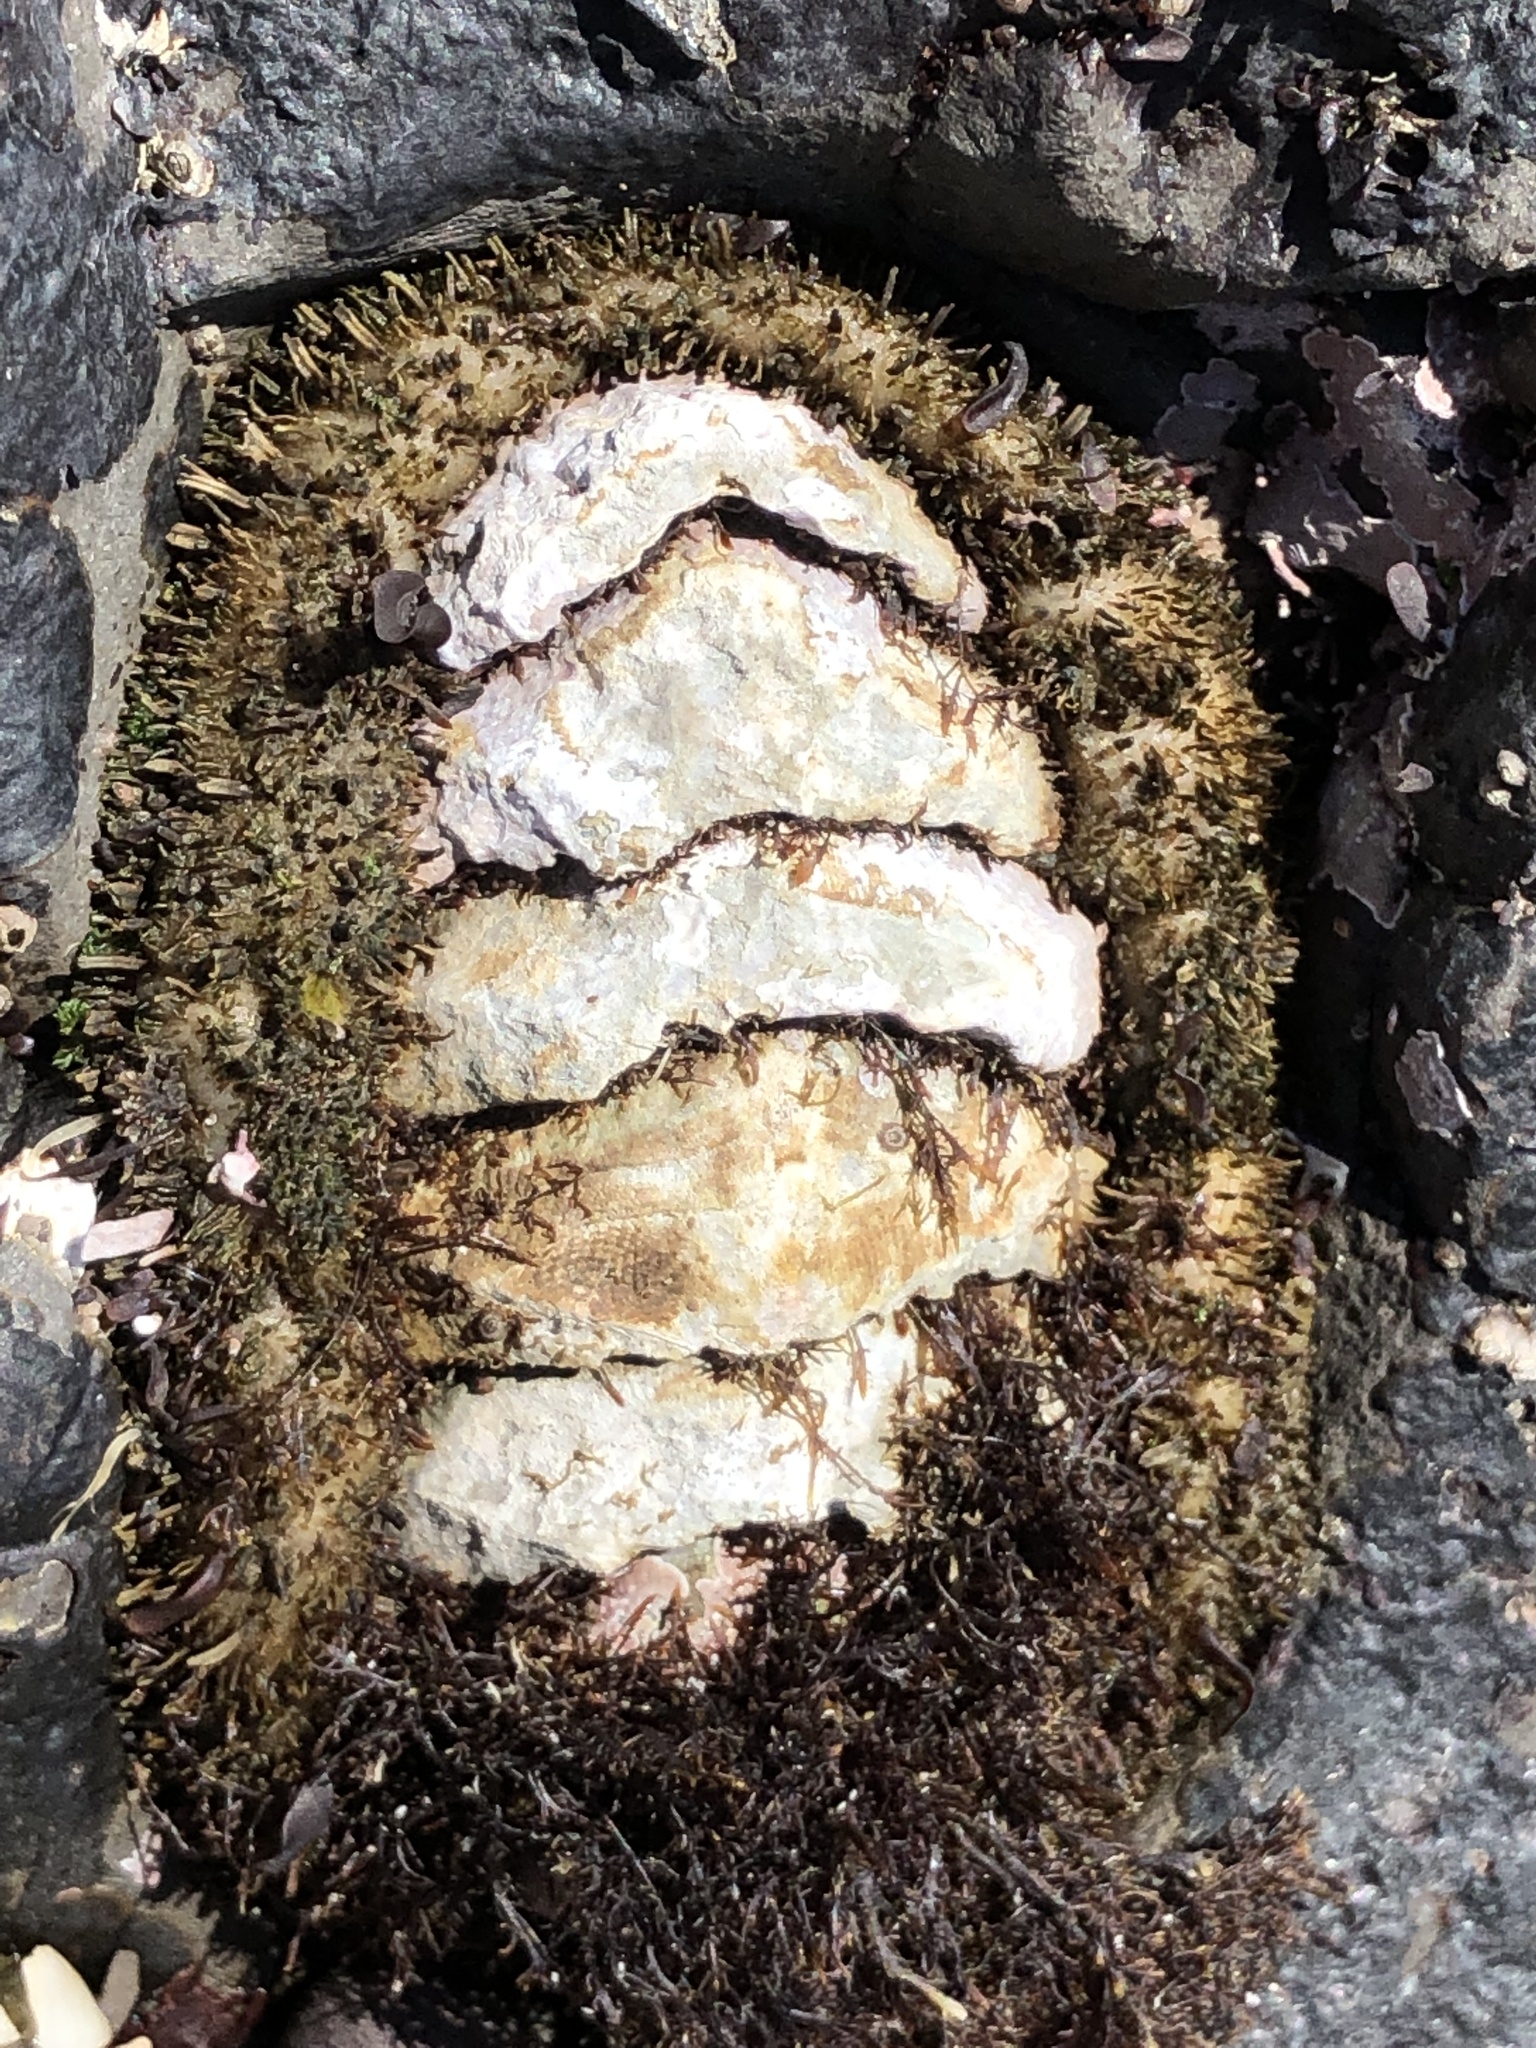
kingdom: Animalia
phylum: Mollusca
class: Polyplacophora
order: Chitonida
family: Mopaliidae
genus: Mopalia
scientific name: Mopalia muscosa
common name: Mossy chiton
